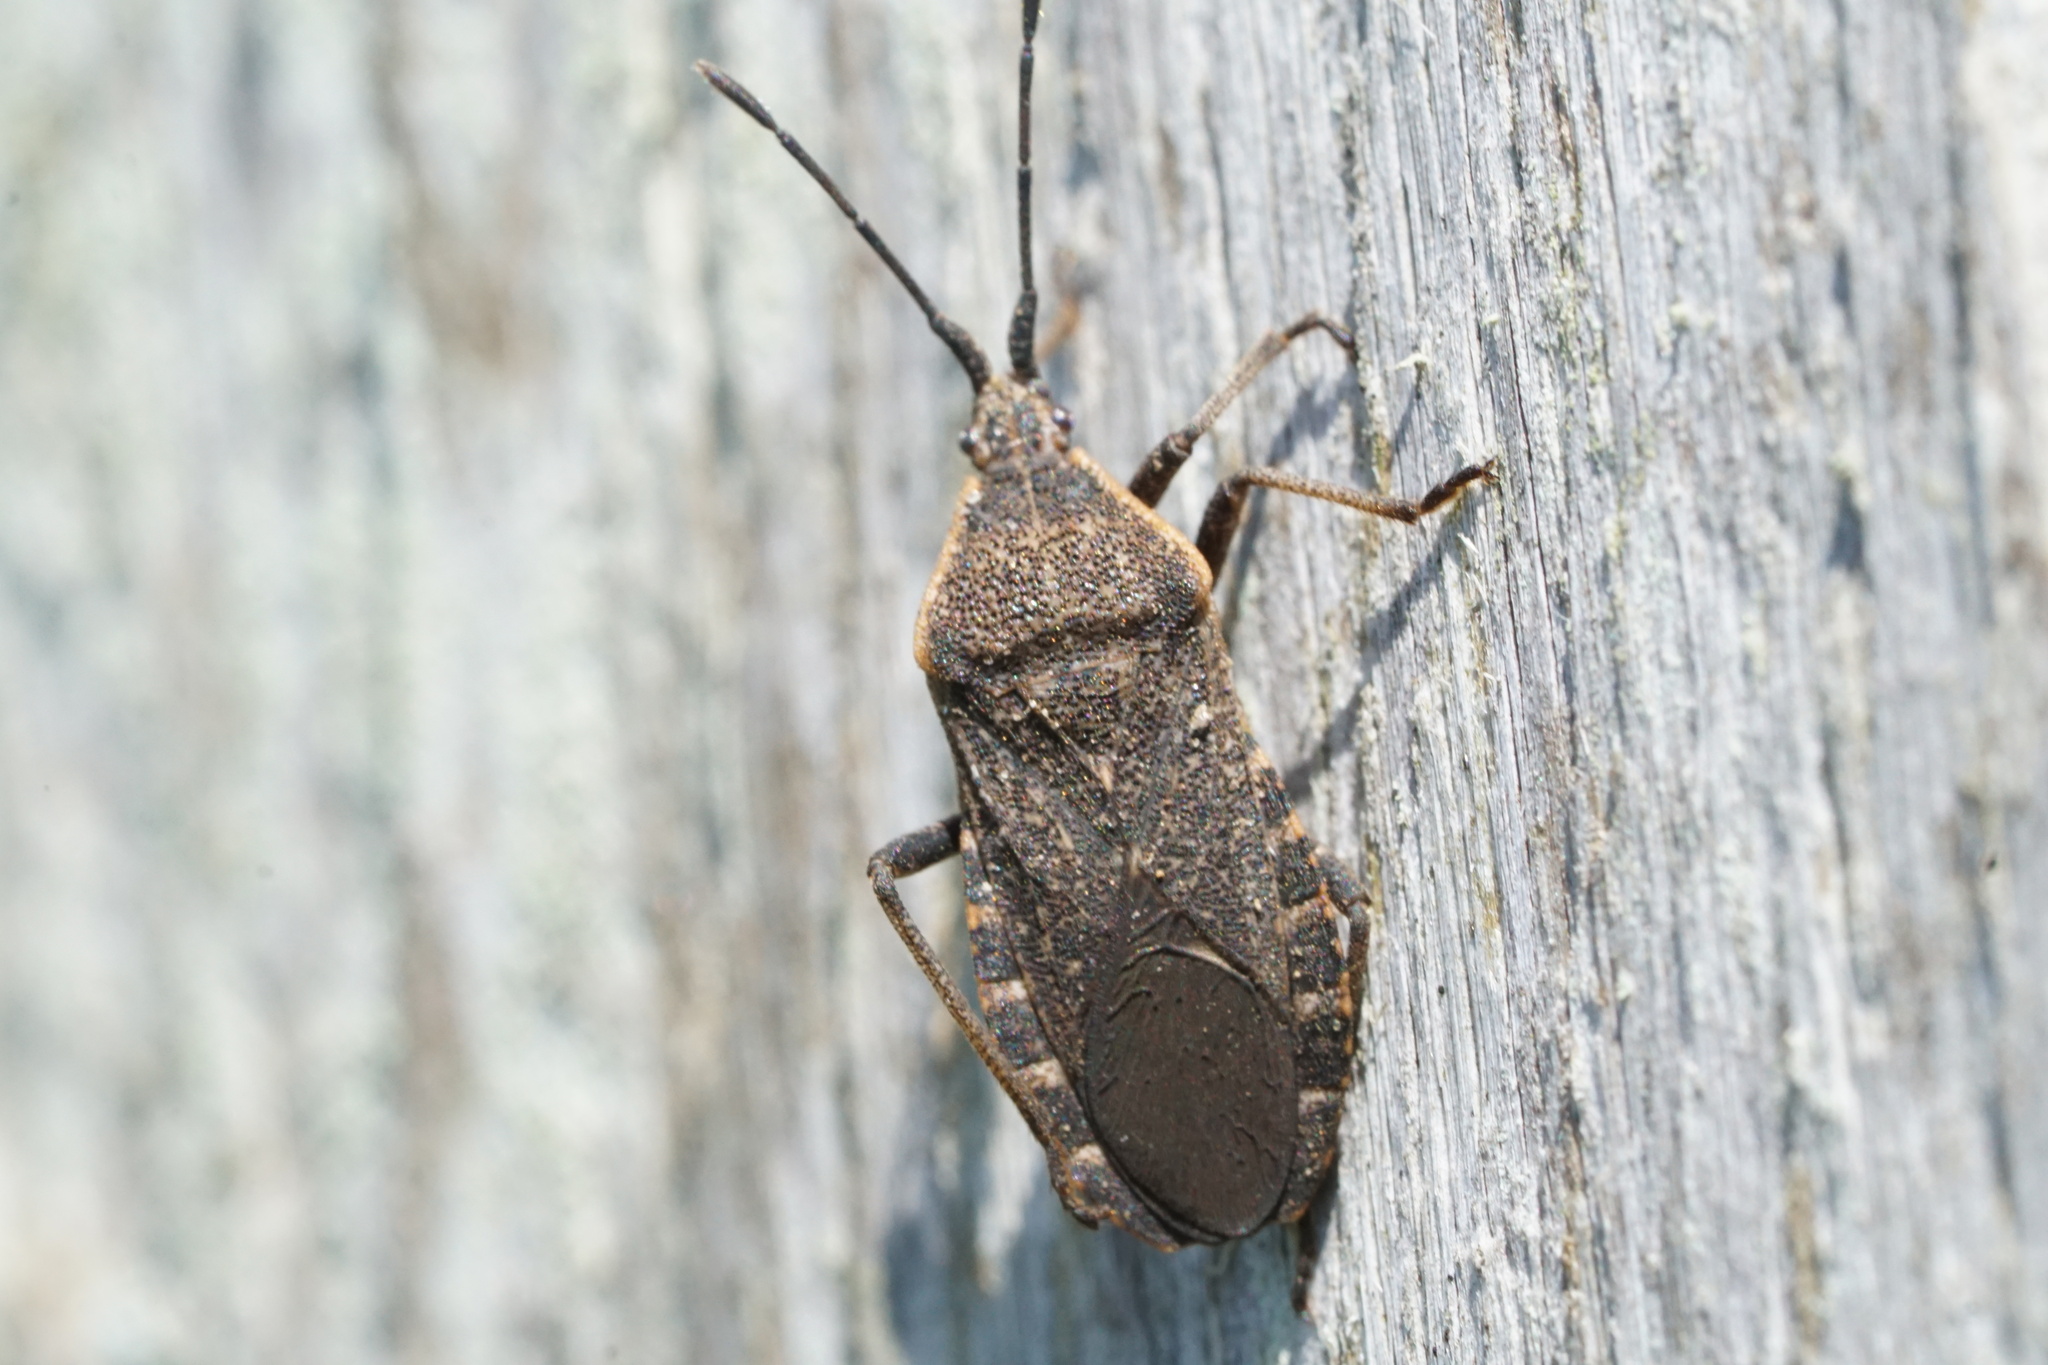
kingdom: Animalia
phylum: Arthropoda
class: Insecta
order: Hemiptera
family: Coreidae
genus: Anasa
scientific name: Anasa tristis
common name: Squash bug
